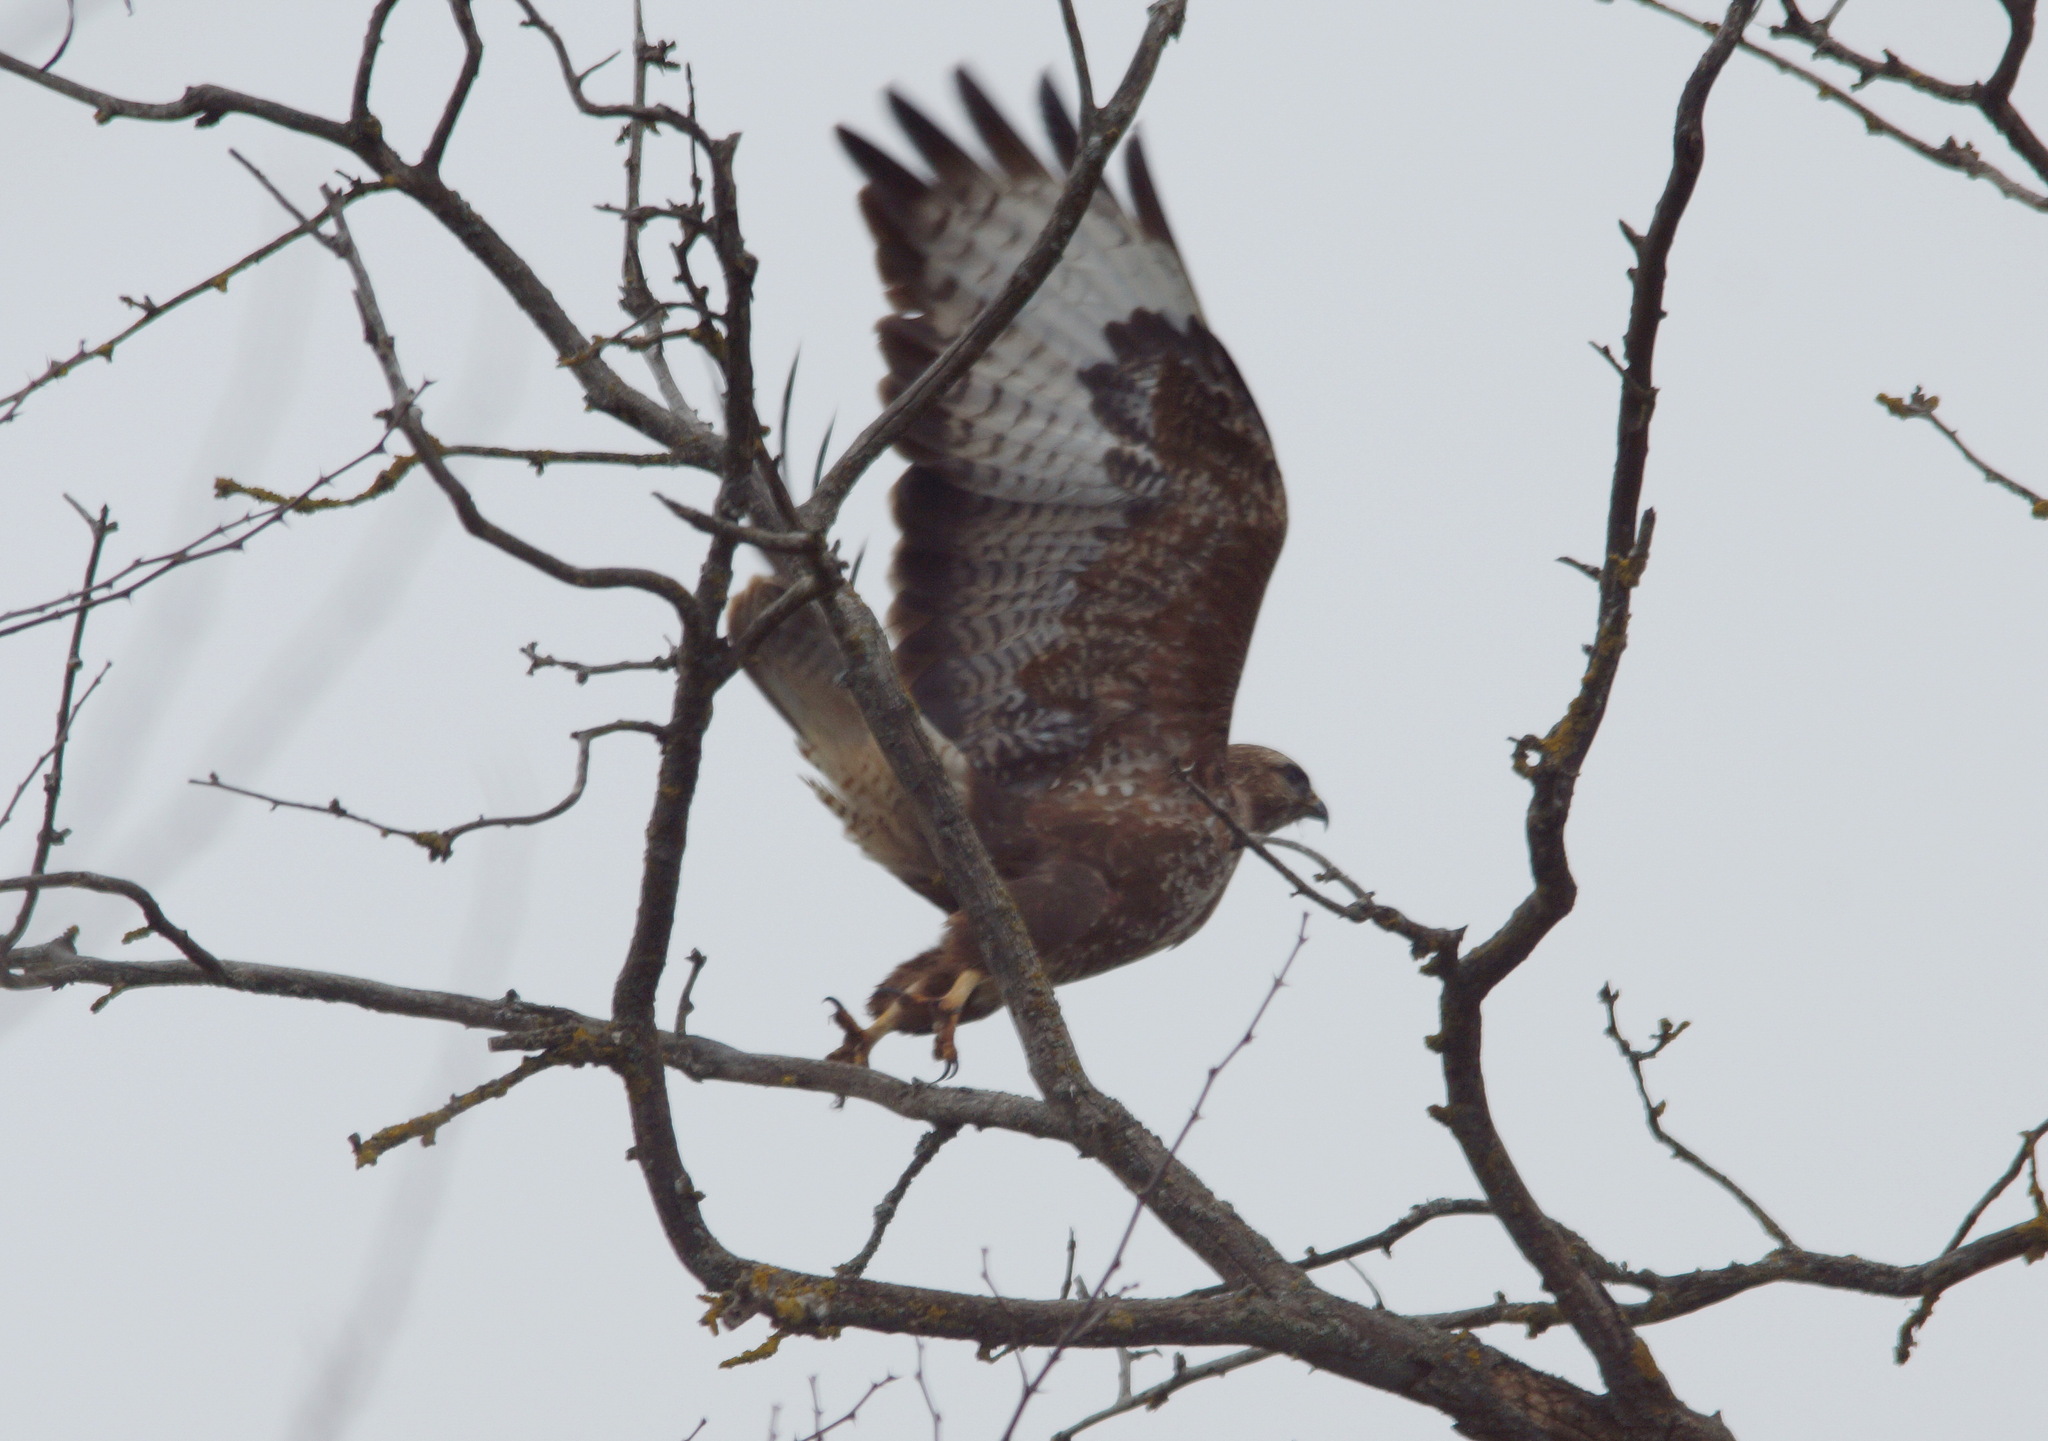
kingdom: Animalia
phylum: Chordata
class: Aves
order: Accipitriformes
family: Accipitridae
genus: Buteo
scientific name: Buteo buteo
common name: Common buzzard
